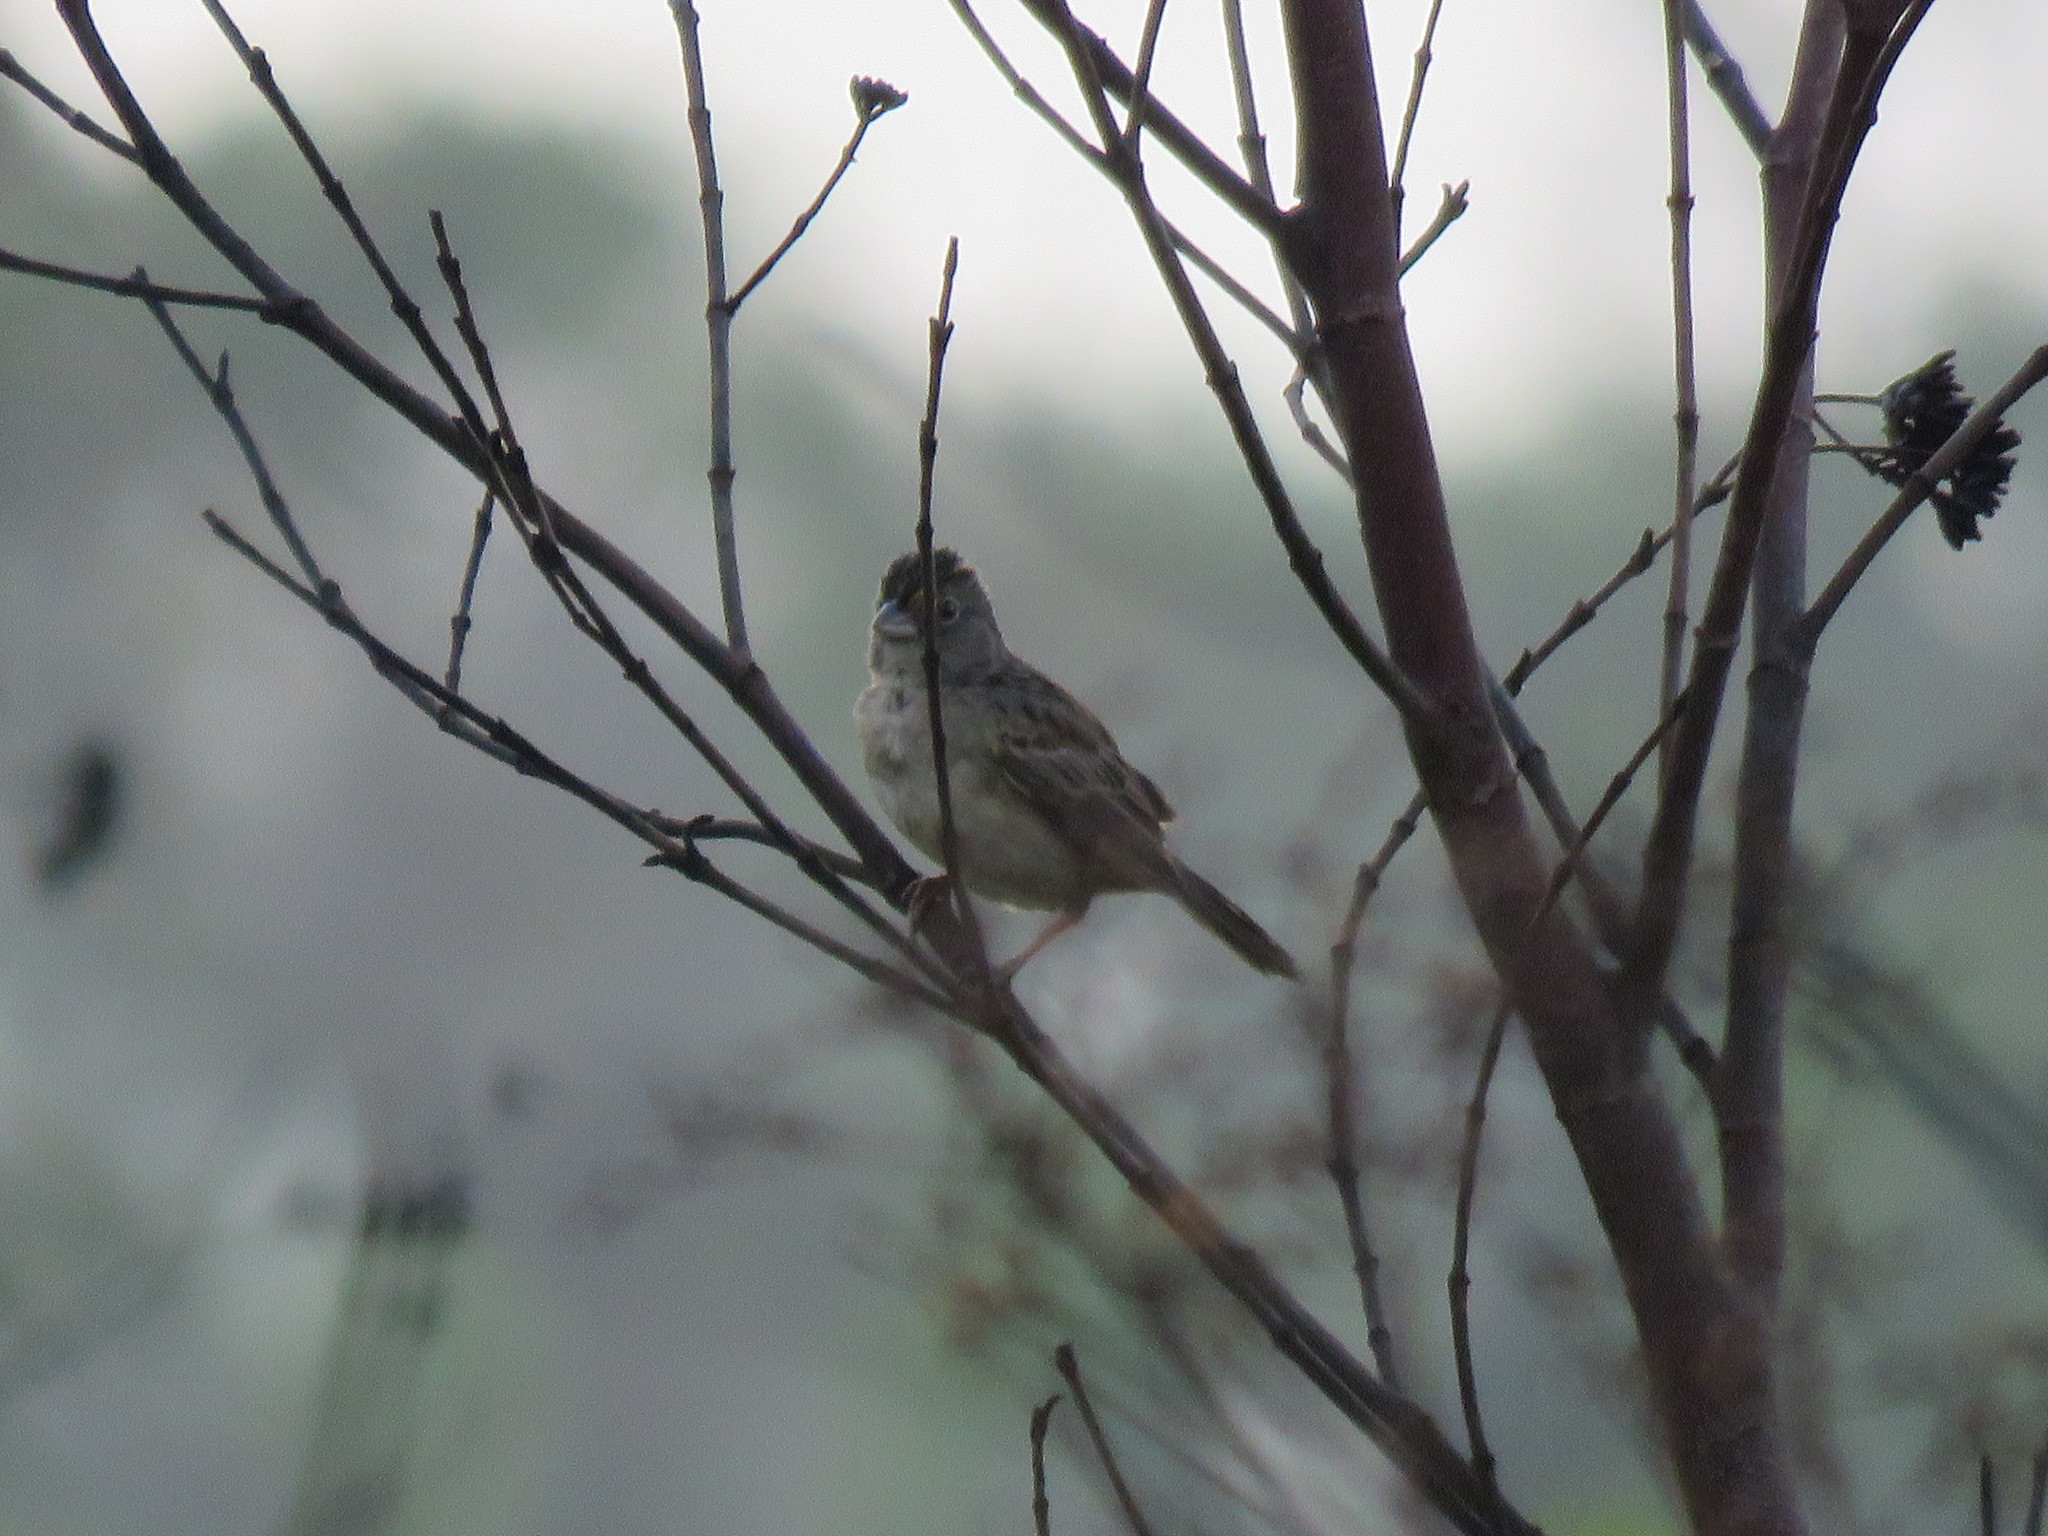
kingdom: Animalia
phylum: Chordata
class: Aves
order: Passeriformes
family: Passerellidae
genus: Ammodramus
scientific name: Ammodramus humeralis
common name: Grassland sparrow
